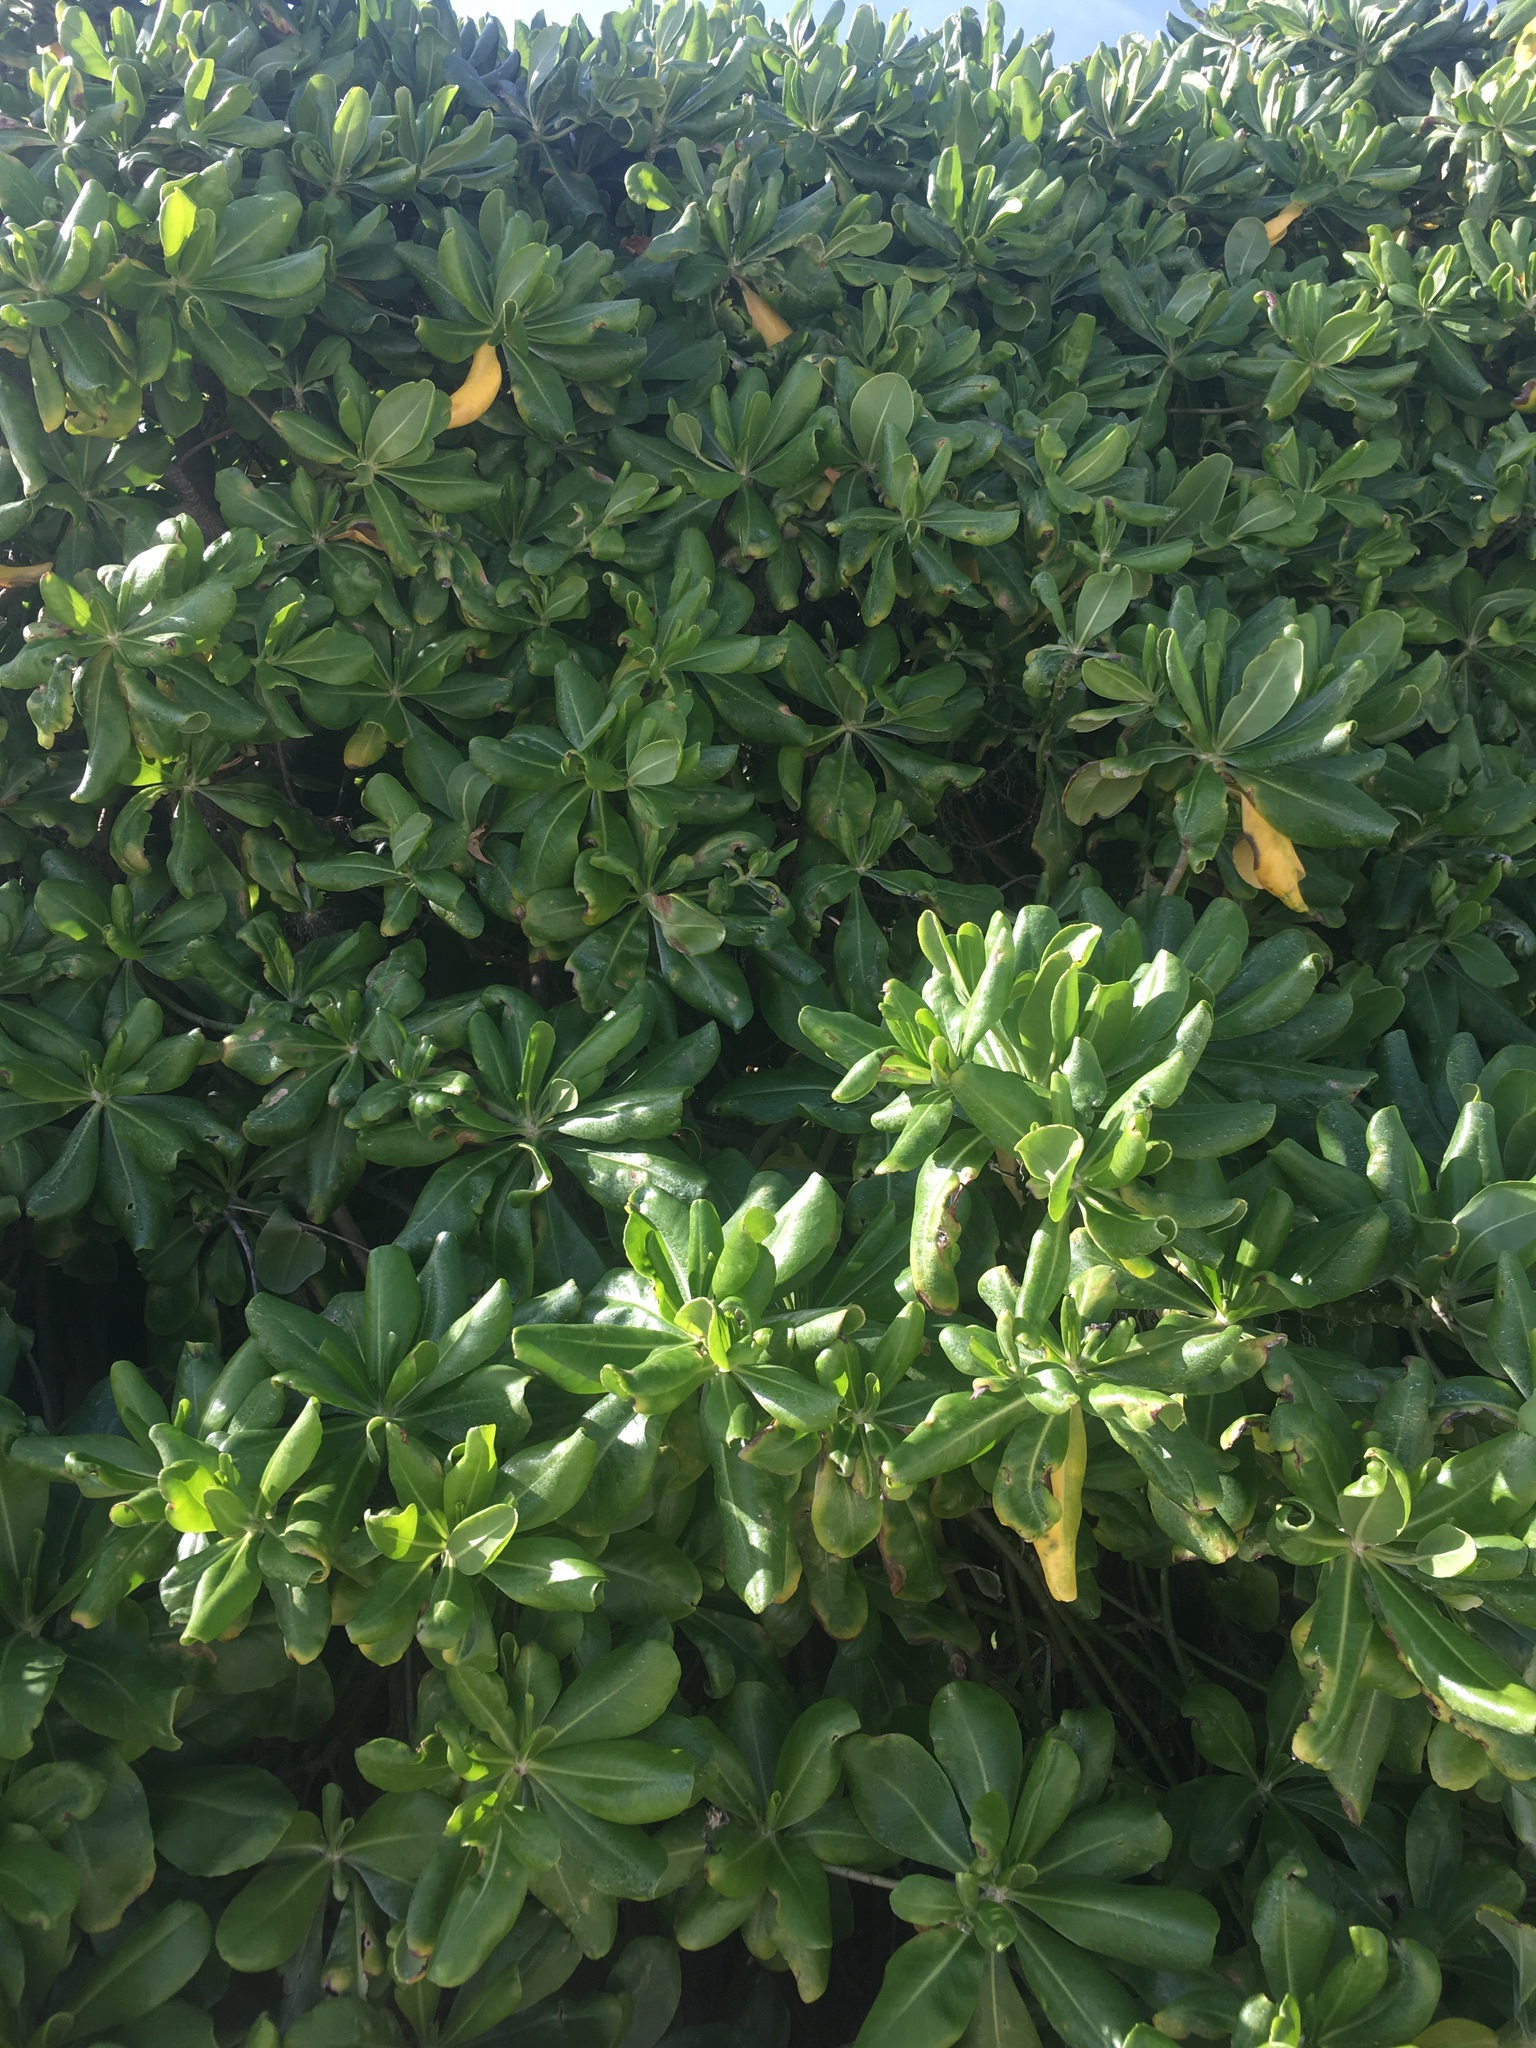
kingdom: Plantae
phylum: Tracheophyta
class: Magnoliopsida
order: Asterales
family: Goodeniaceae
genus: Scaevola
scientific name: Scaevola taccada
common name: Sea lettucetree
